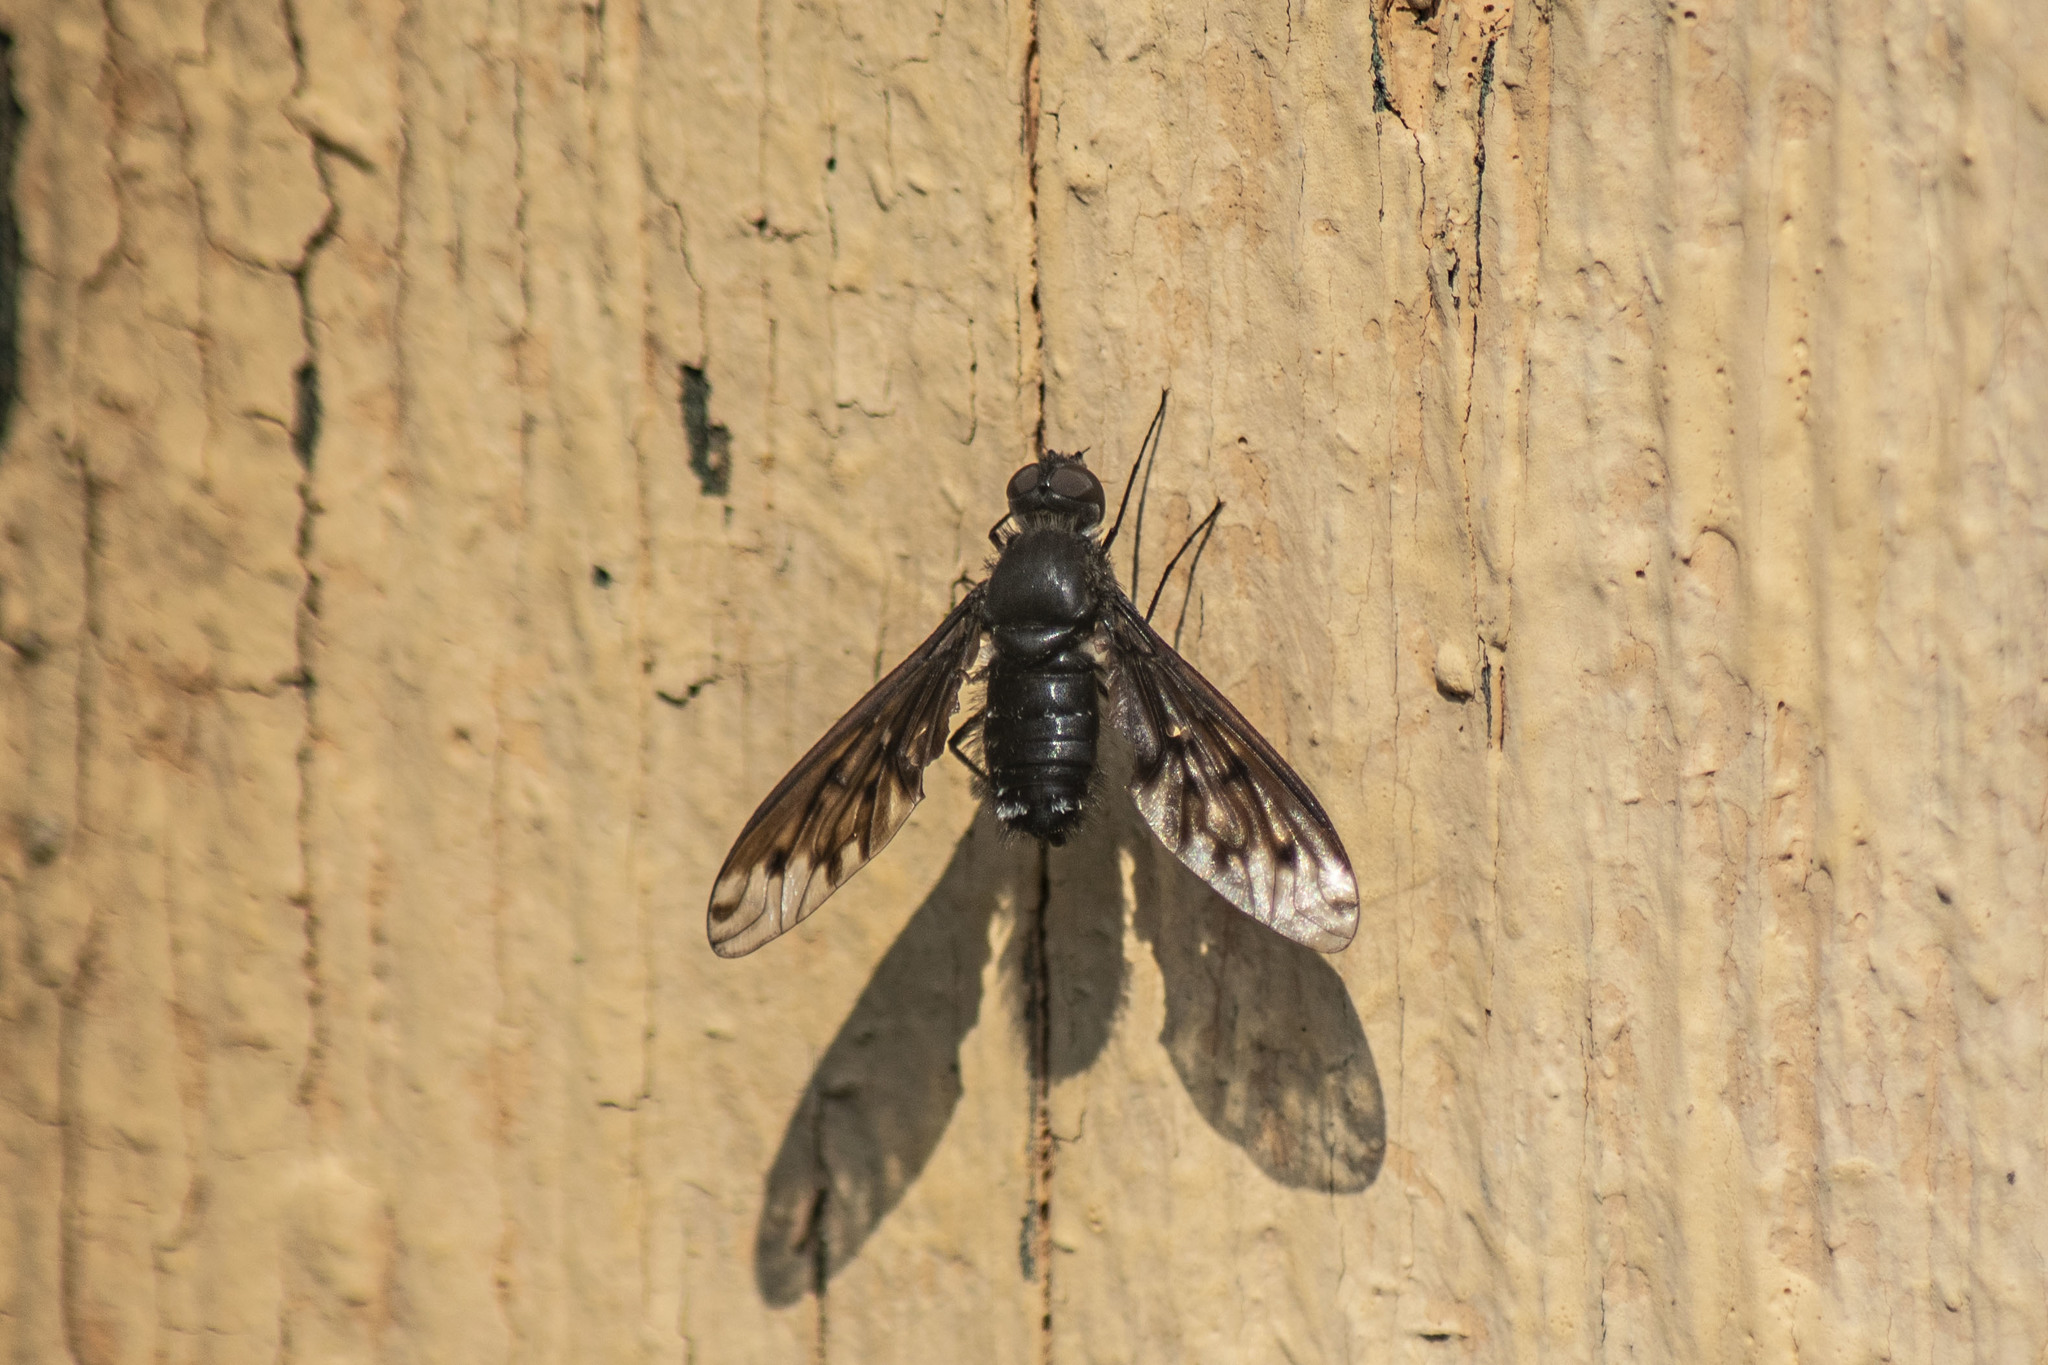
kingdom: Animalia
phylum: Arthropoda
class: Insecta
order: Diptera
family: Bombyliidae
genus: Anthrax
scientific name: Anthrax anthrax
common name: Anthracite bee-fly
